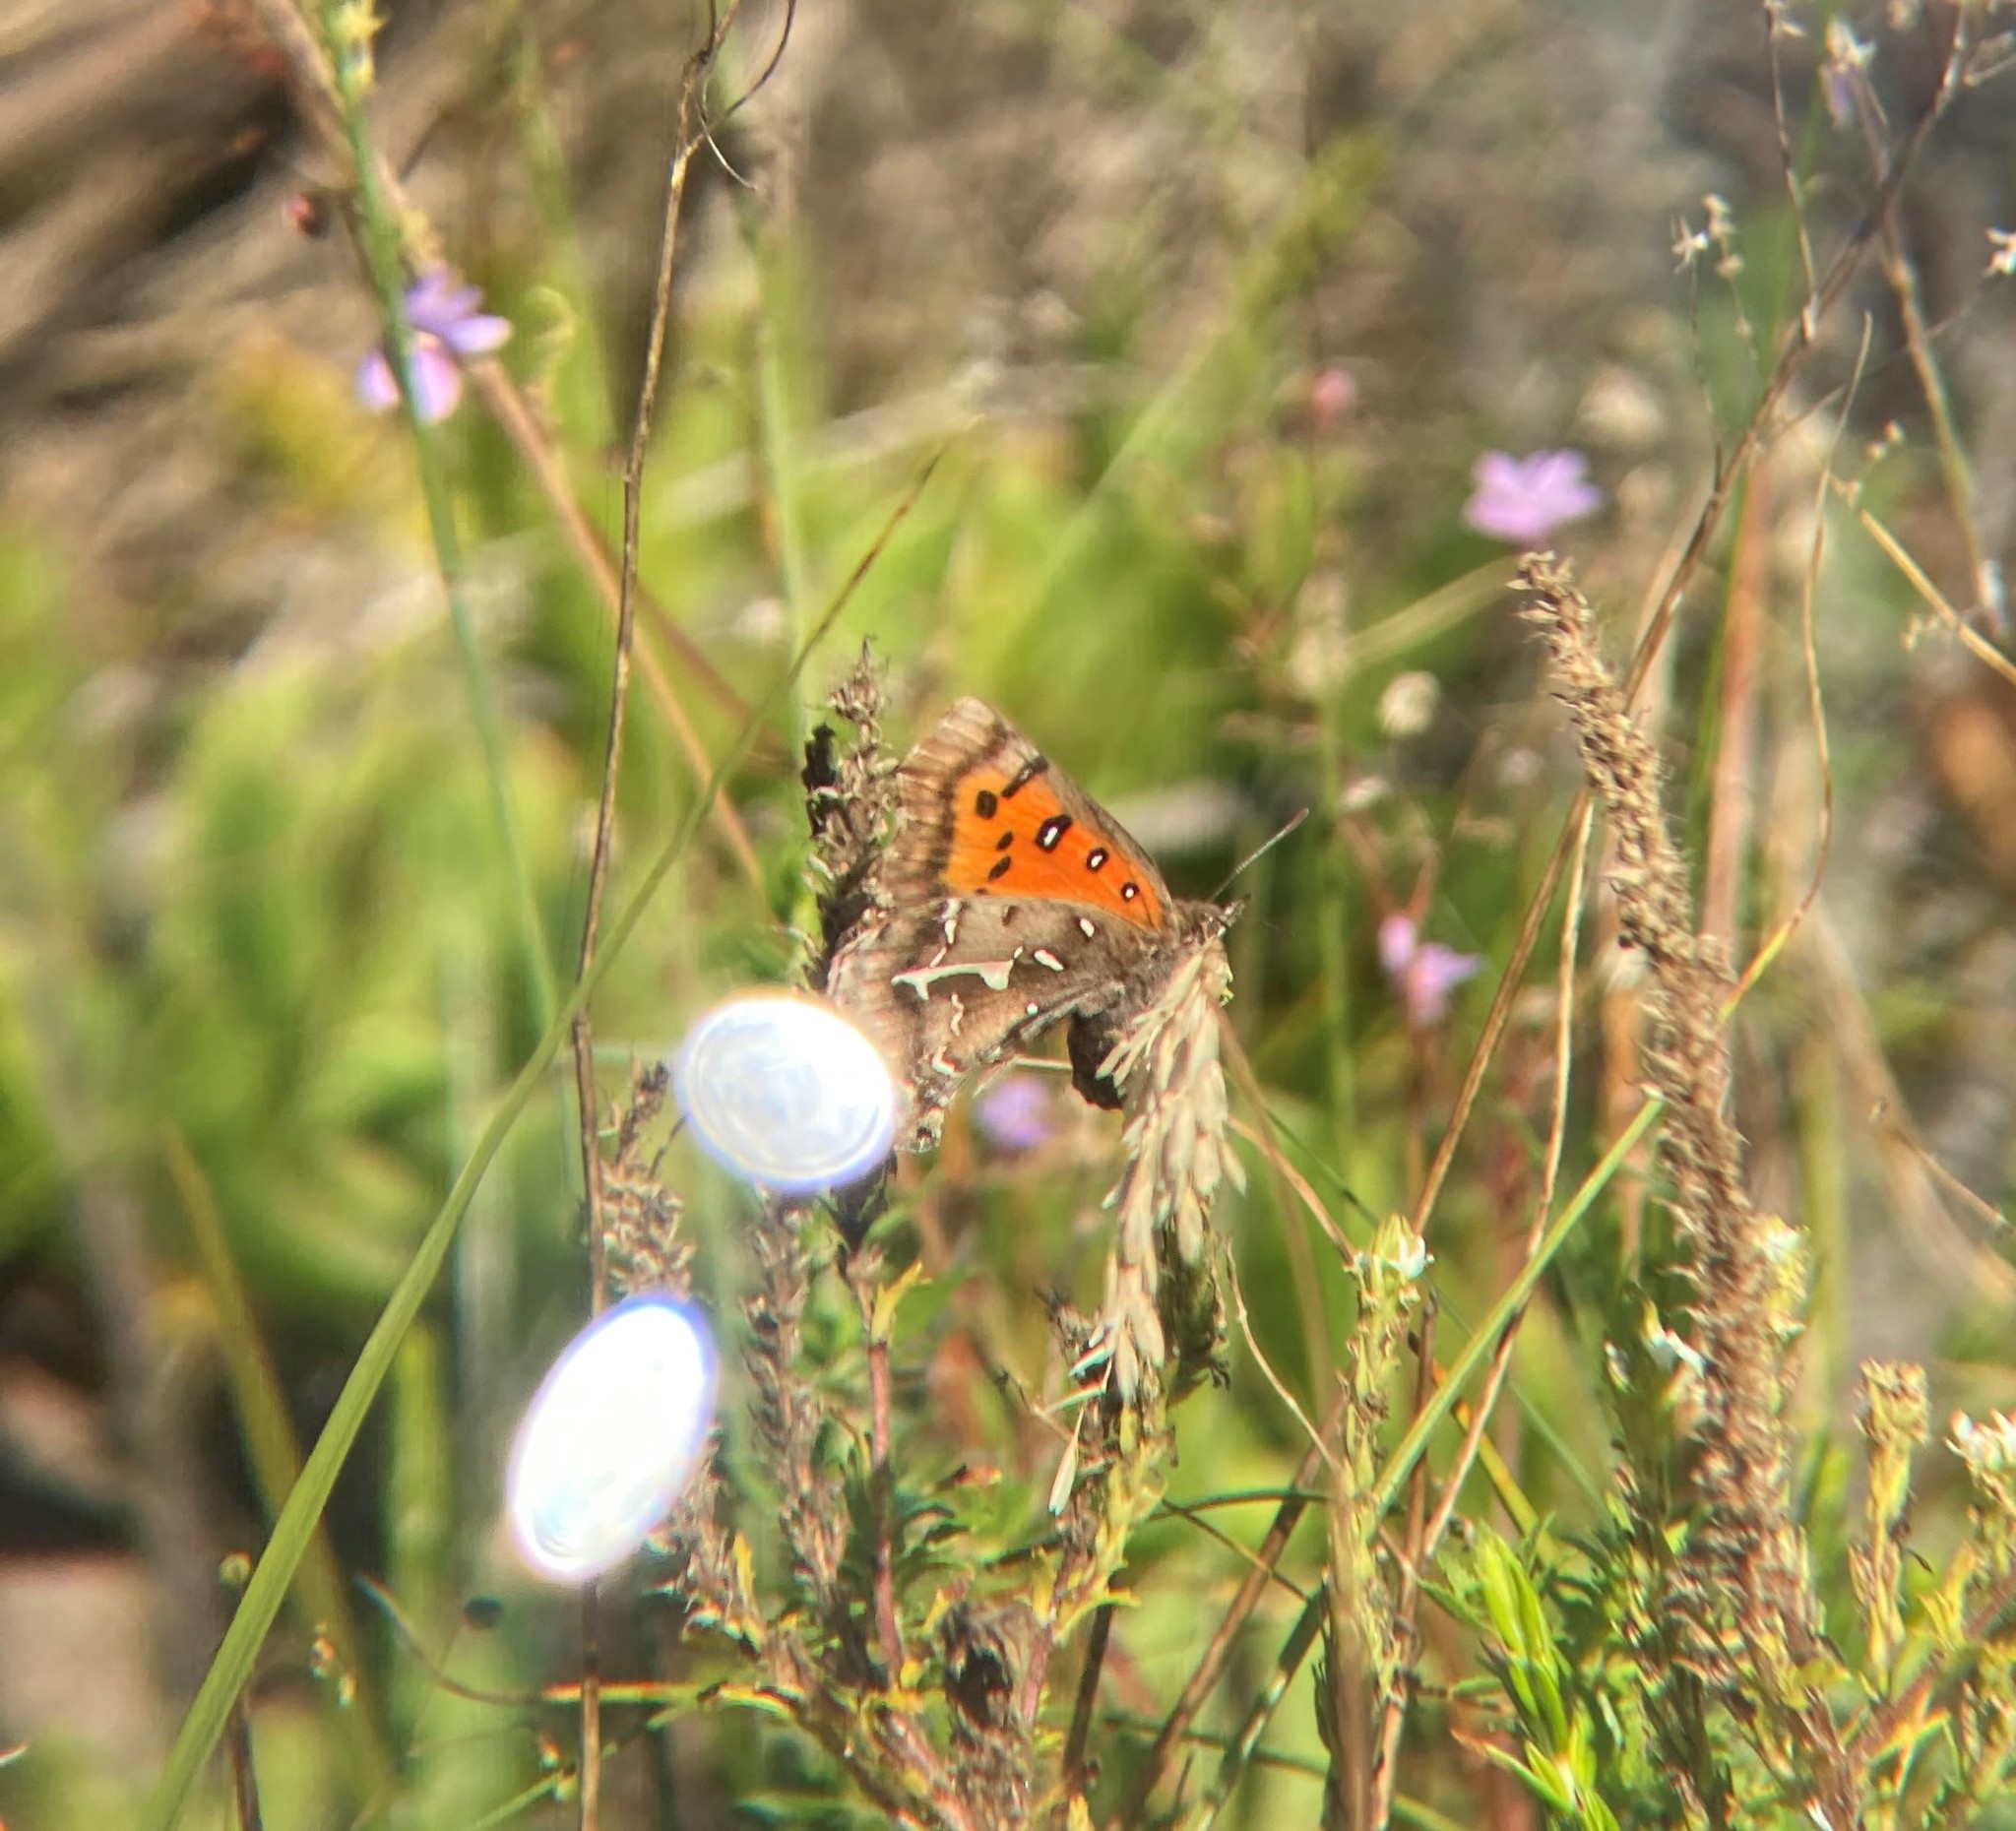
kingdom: Animalia
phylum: Arthropoda
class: Insecta
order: Lepidoptera
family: Lycaenidae
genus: Phasis
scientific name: Phasis thero
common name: Silver arrowhead
